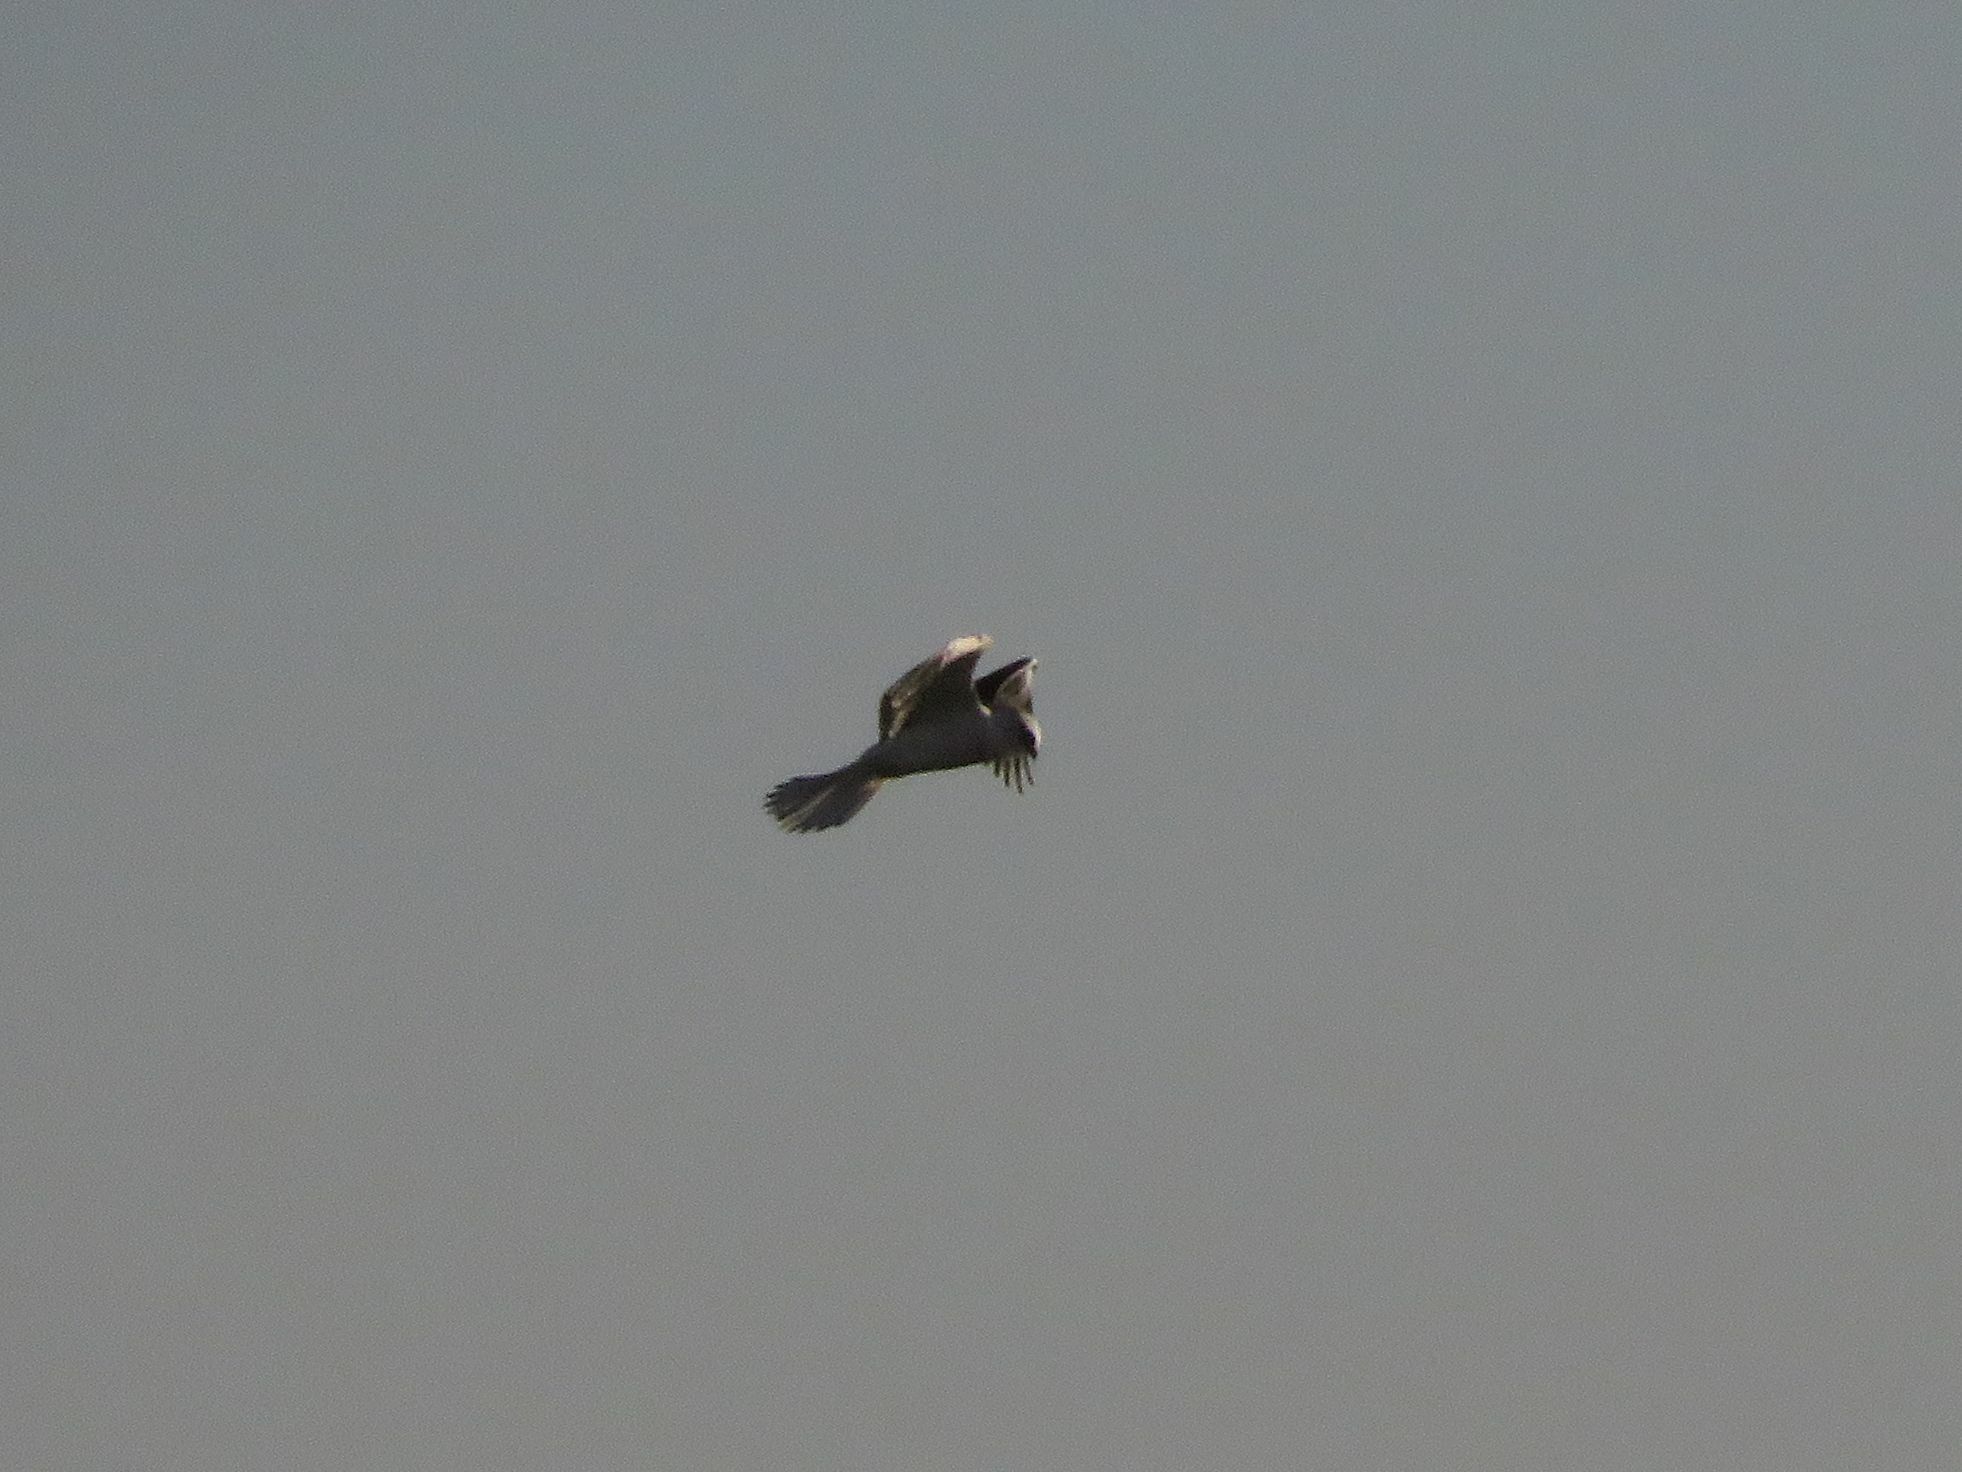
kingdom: Animalia
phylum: Chordata
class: Aves
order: Accipitriformes
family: Accipitridae
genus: Elanus
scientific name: Elanus leucurus
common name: White-tailed kite
